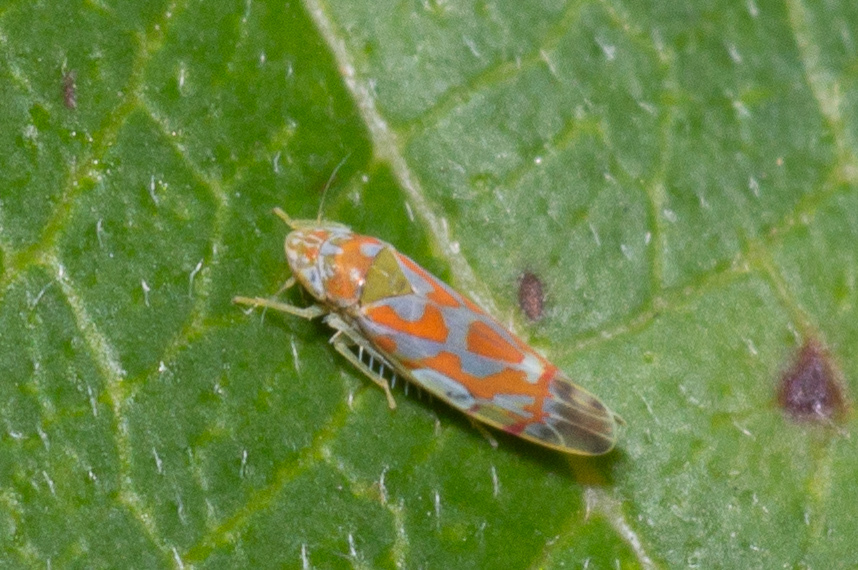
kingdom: Animalia
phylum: Arthropoda
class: Insecta
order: Hemiptera
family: Cicadellidae
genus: Erythroneura
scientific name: Erythroneura rubrella
